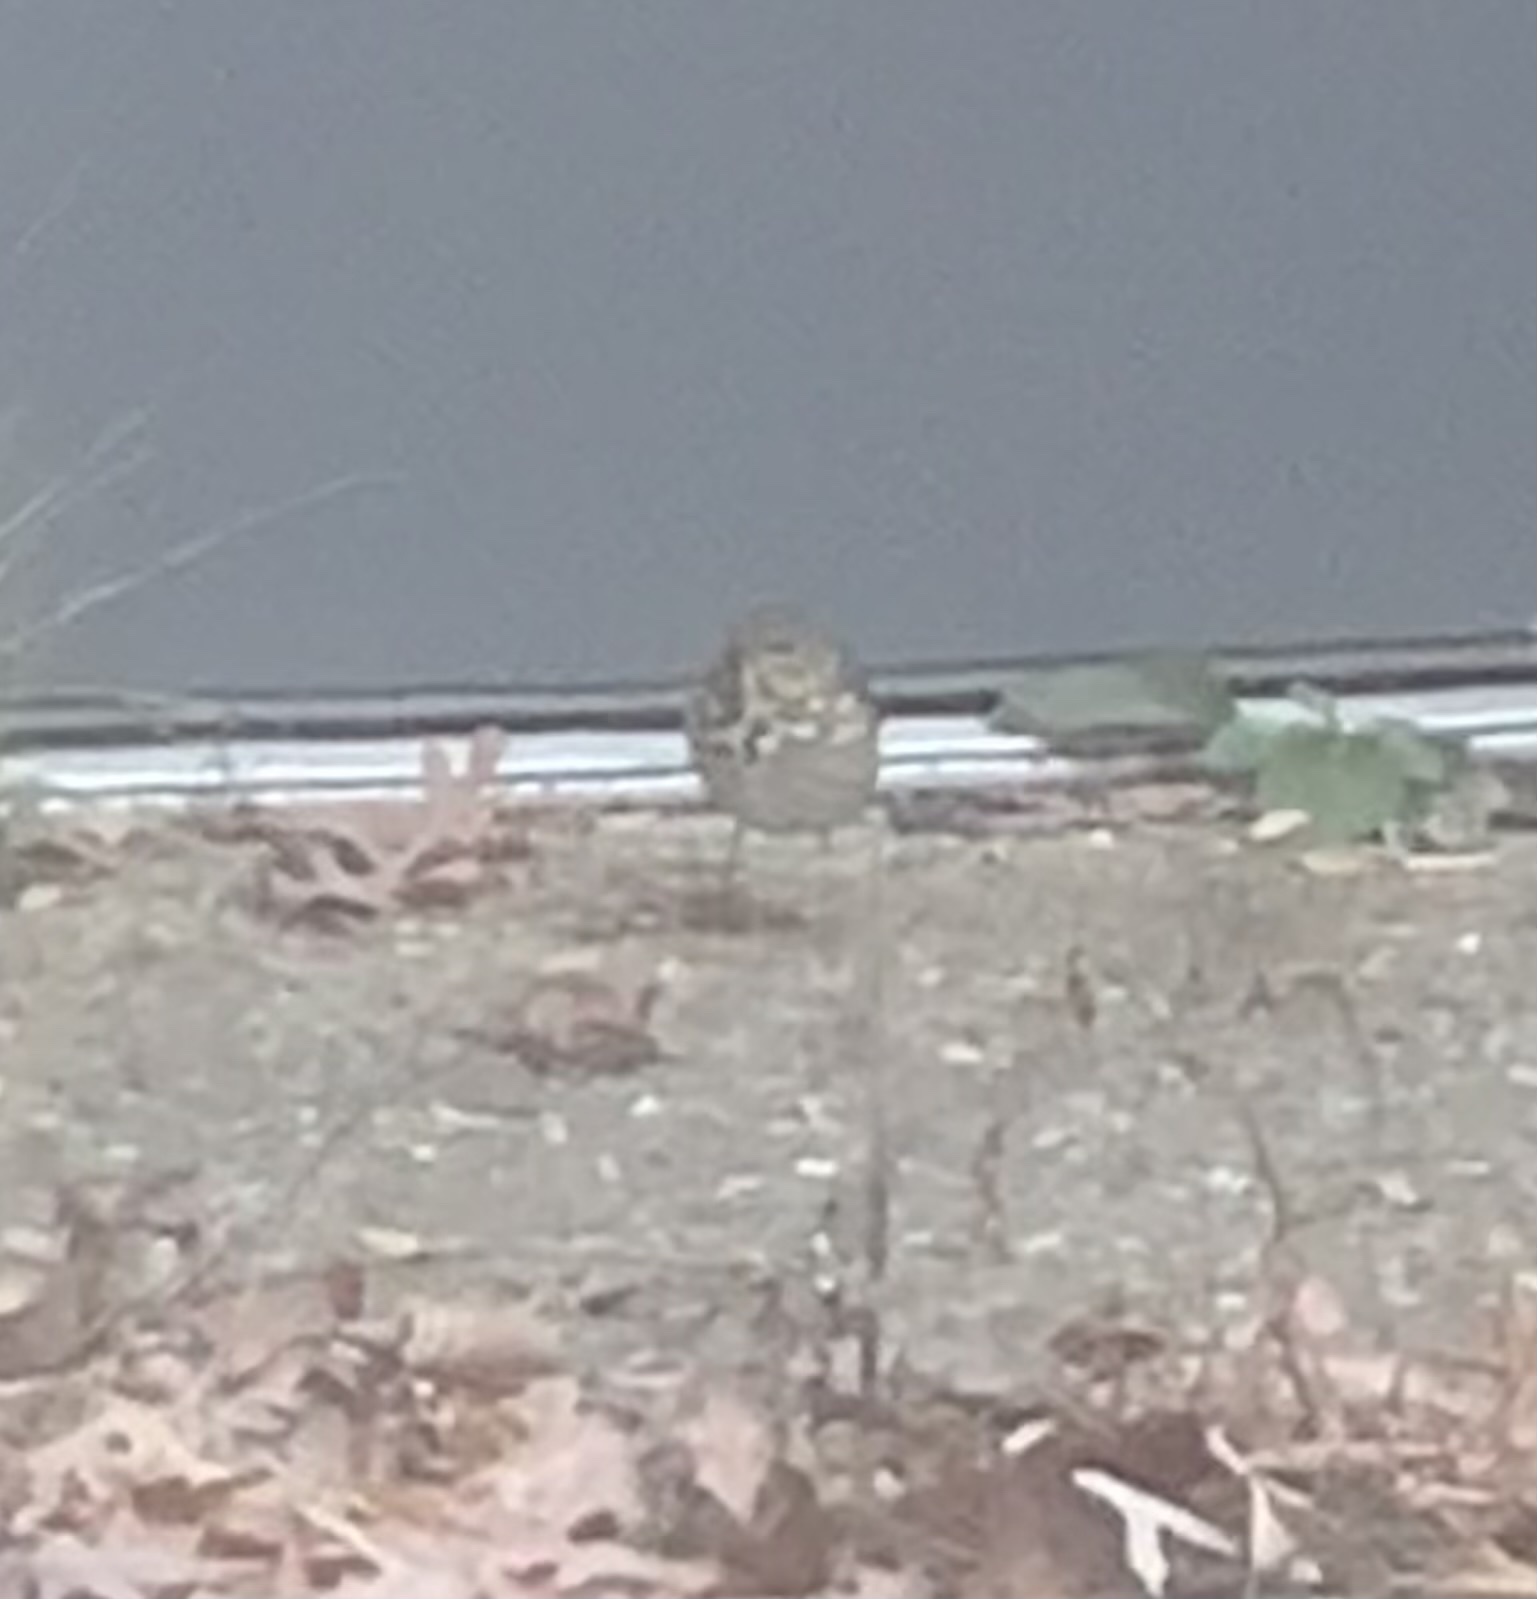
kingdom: Animalia
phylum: Chordata
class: Aves
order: Passeriformes
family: Turdidae
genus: Catharus
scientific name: Catharus guttatus
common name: Hermit thrush
